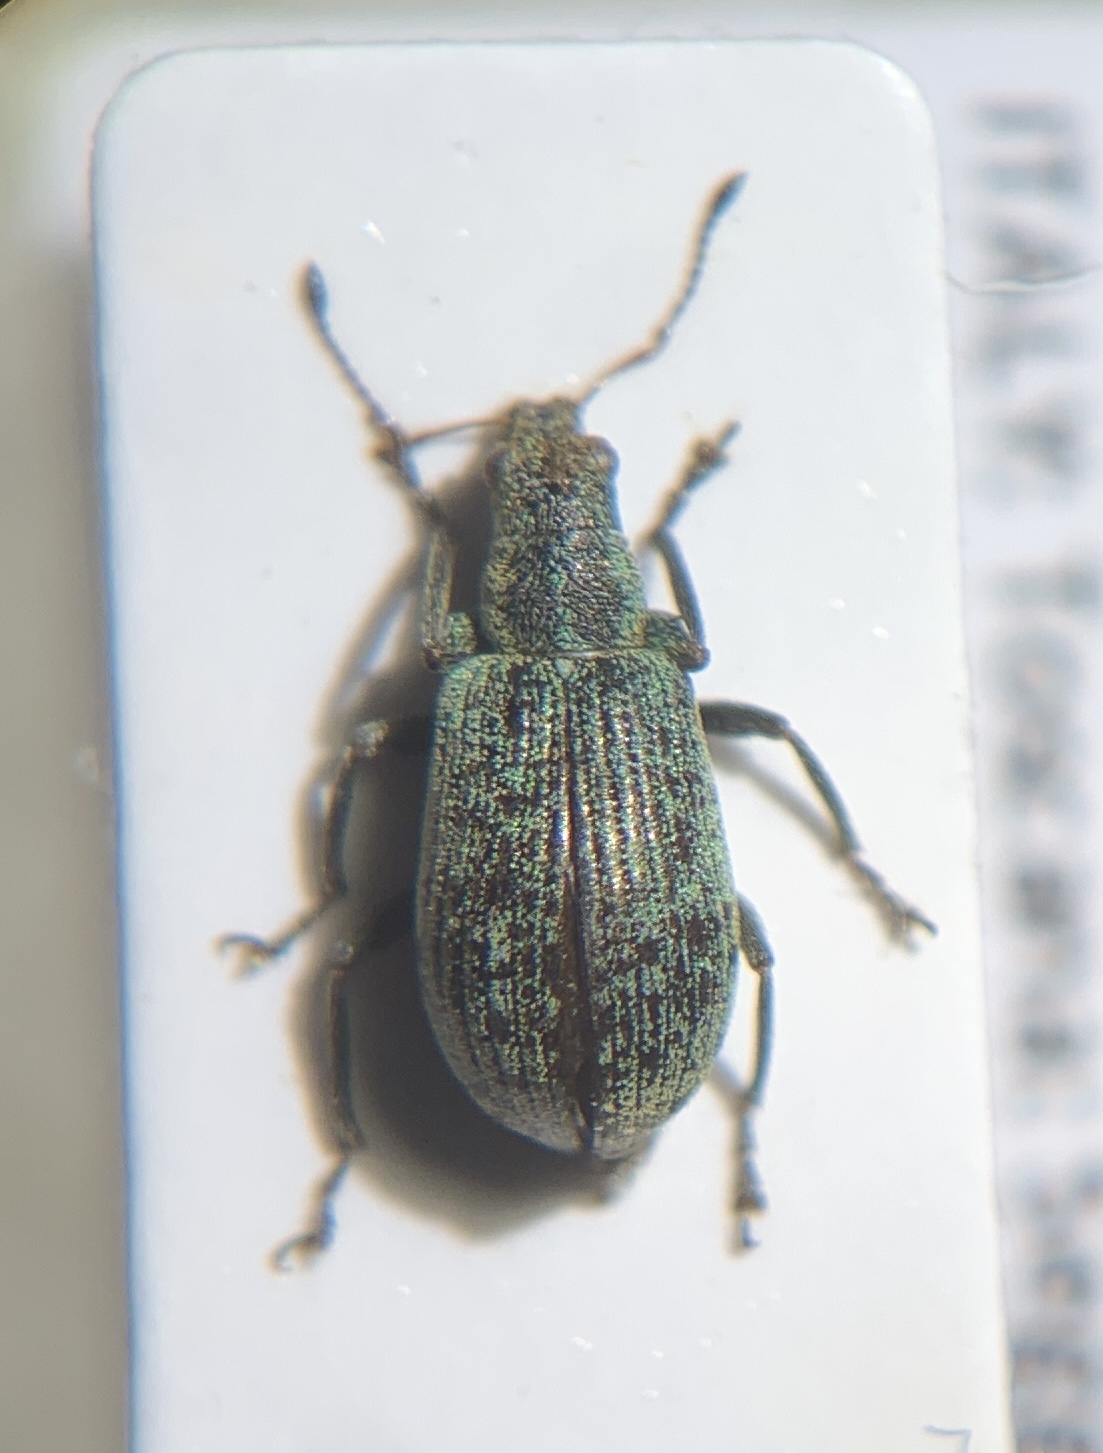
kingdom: Animalia
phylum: Arthropoda
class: Insecta
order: Coleoptera
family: Curculionidae
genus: Polydrusus
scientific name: Polydrusus cervinus
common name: Weevil
